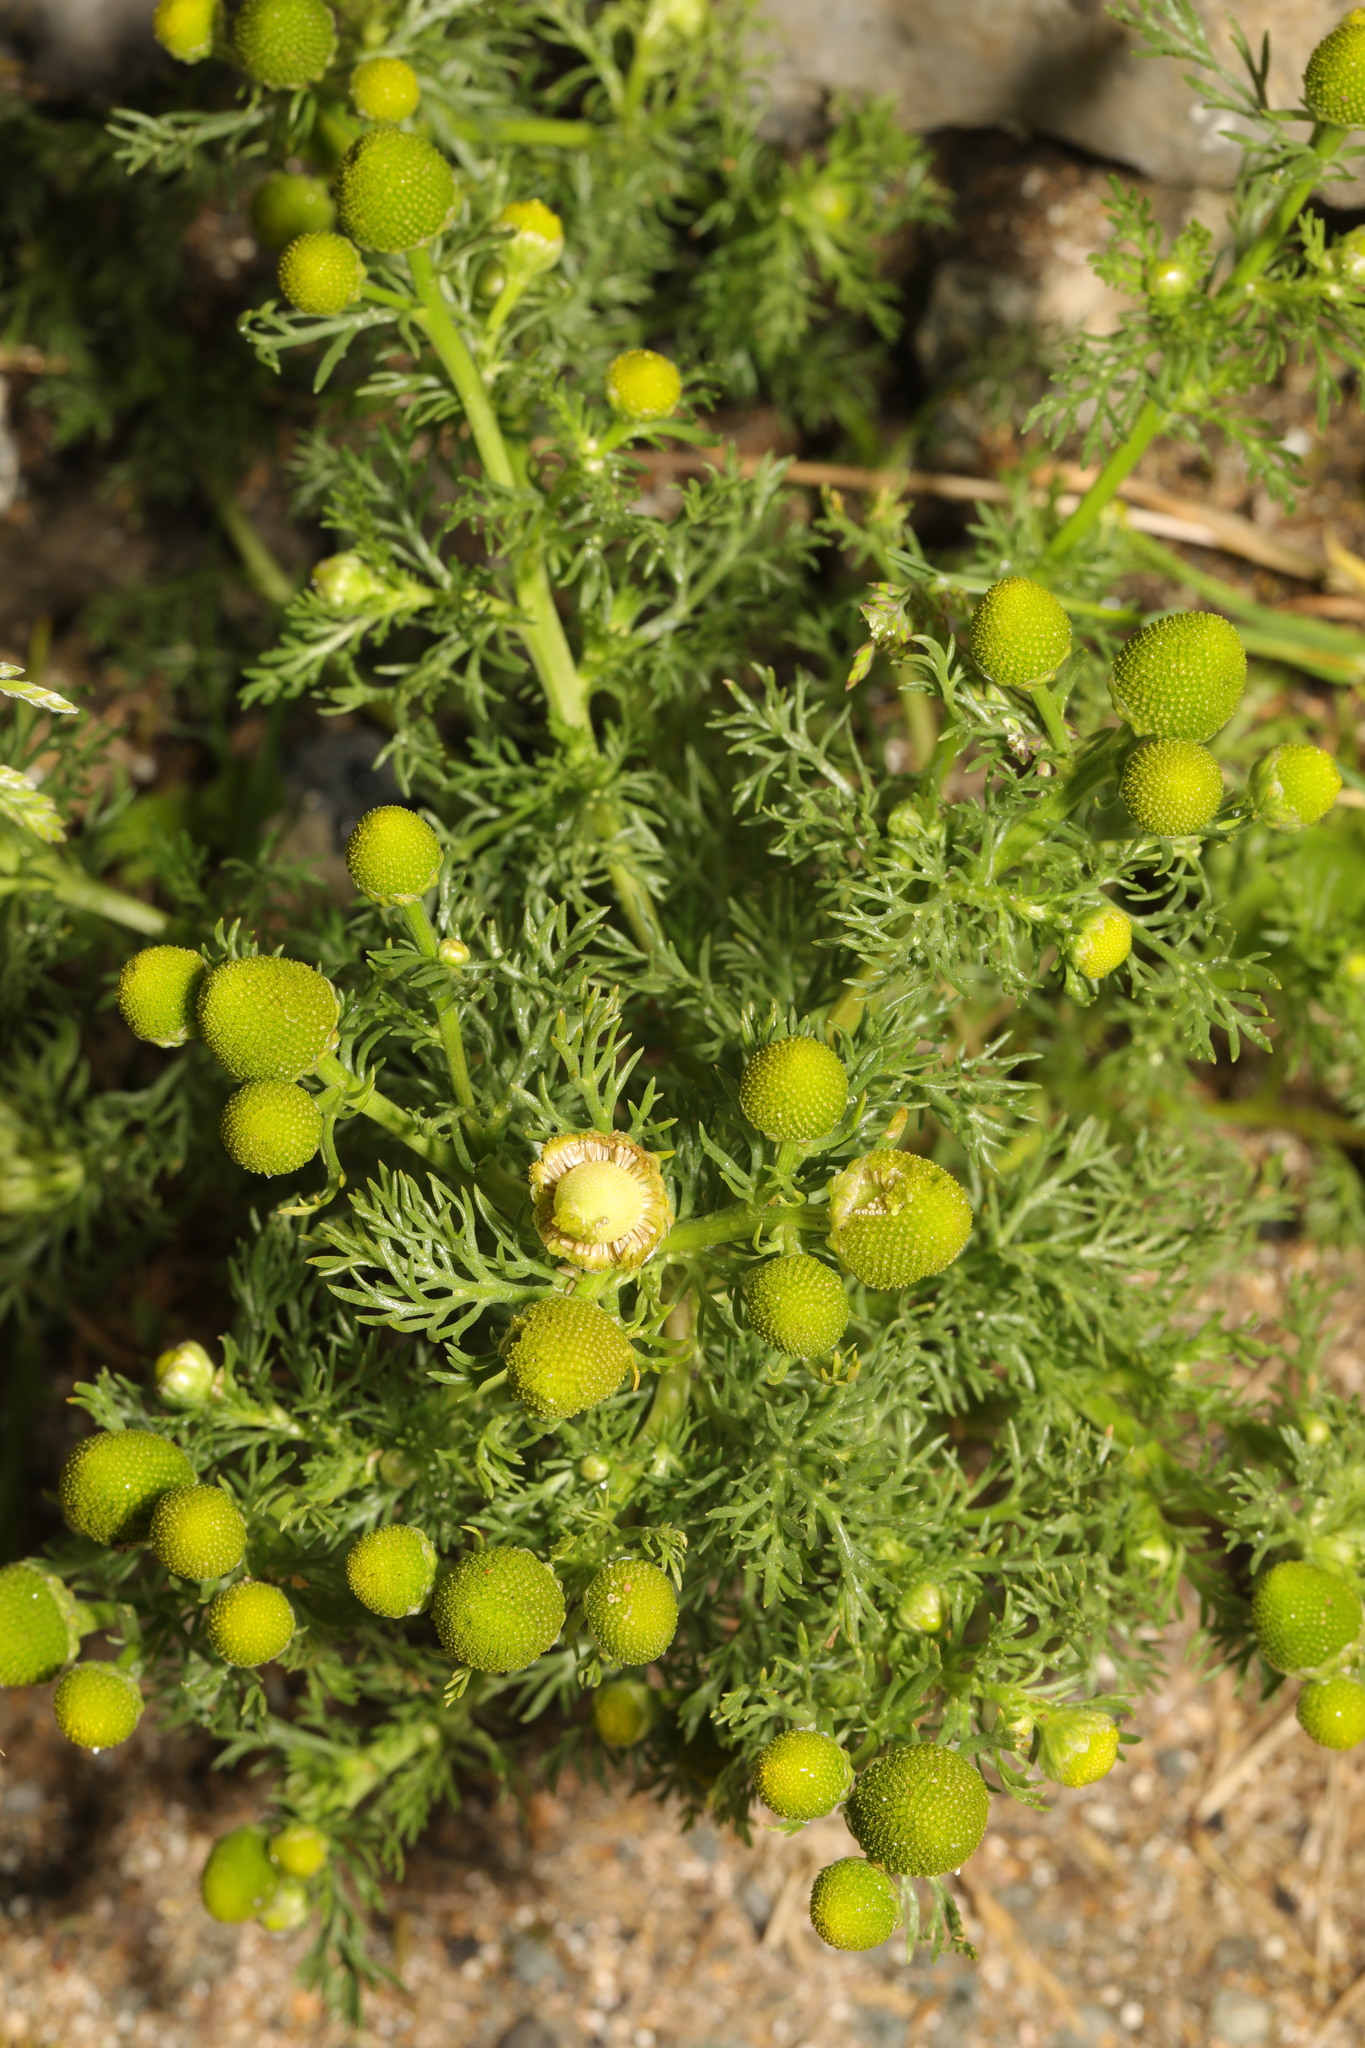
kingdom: Plantae
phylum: Tracheophyta
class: Magnoliopsida
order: Asterales
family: Asteraceae
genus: Matricaria
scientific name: Matricaria discoidea
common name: Disc mayweed
